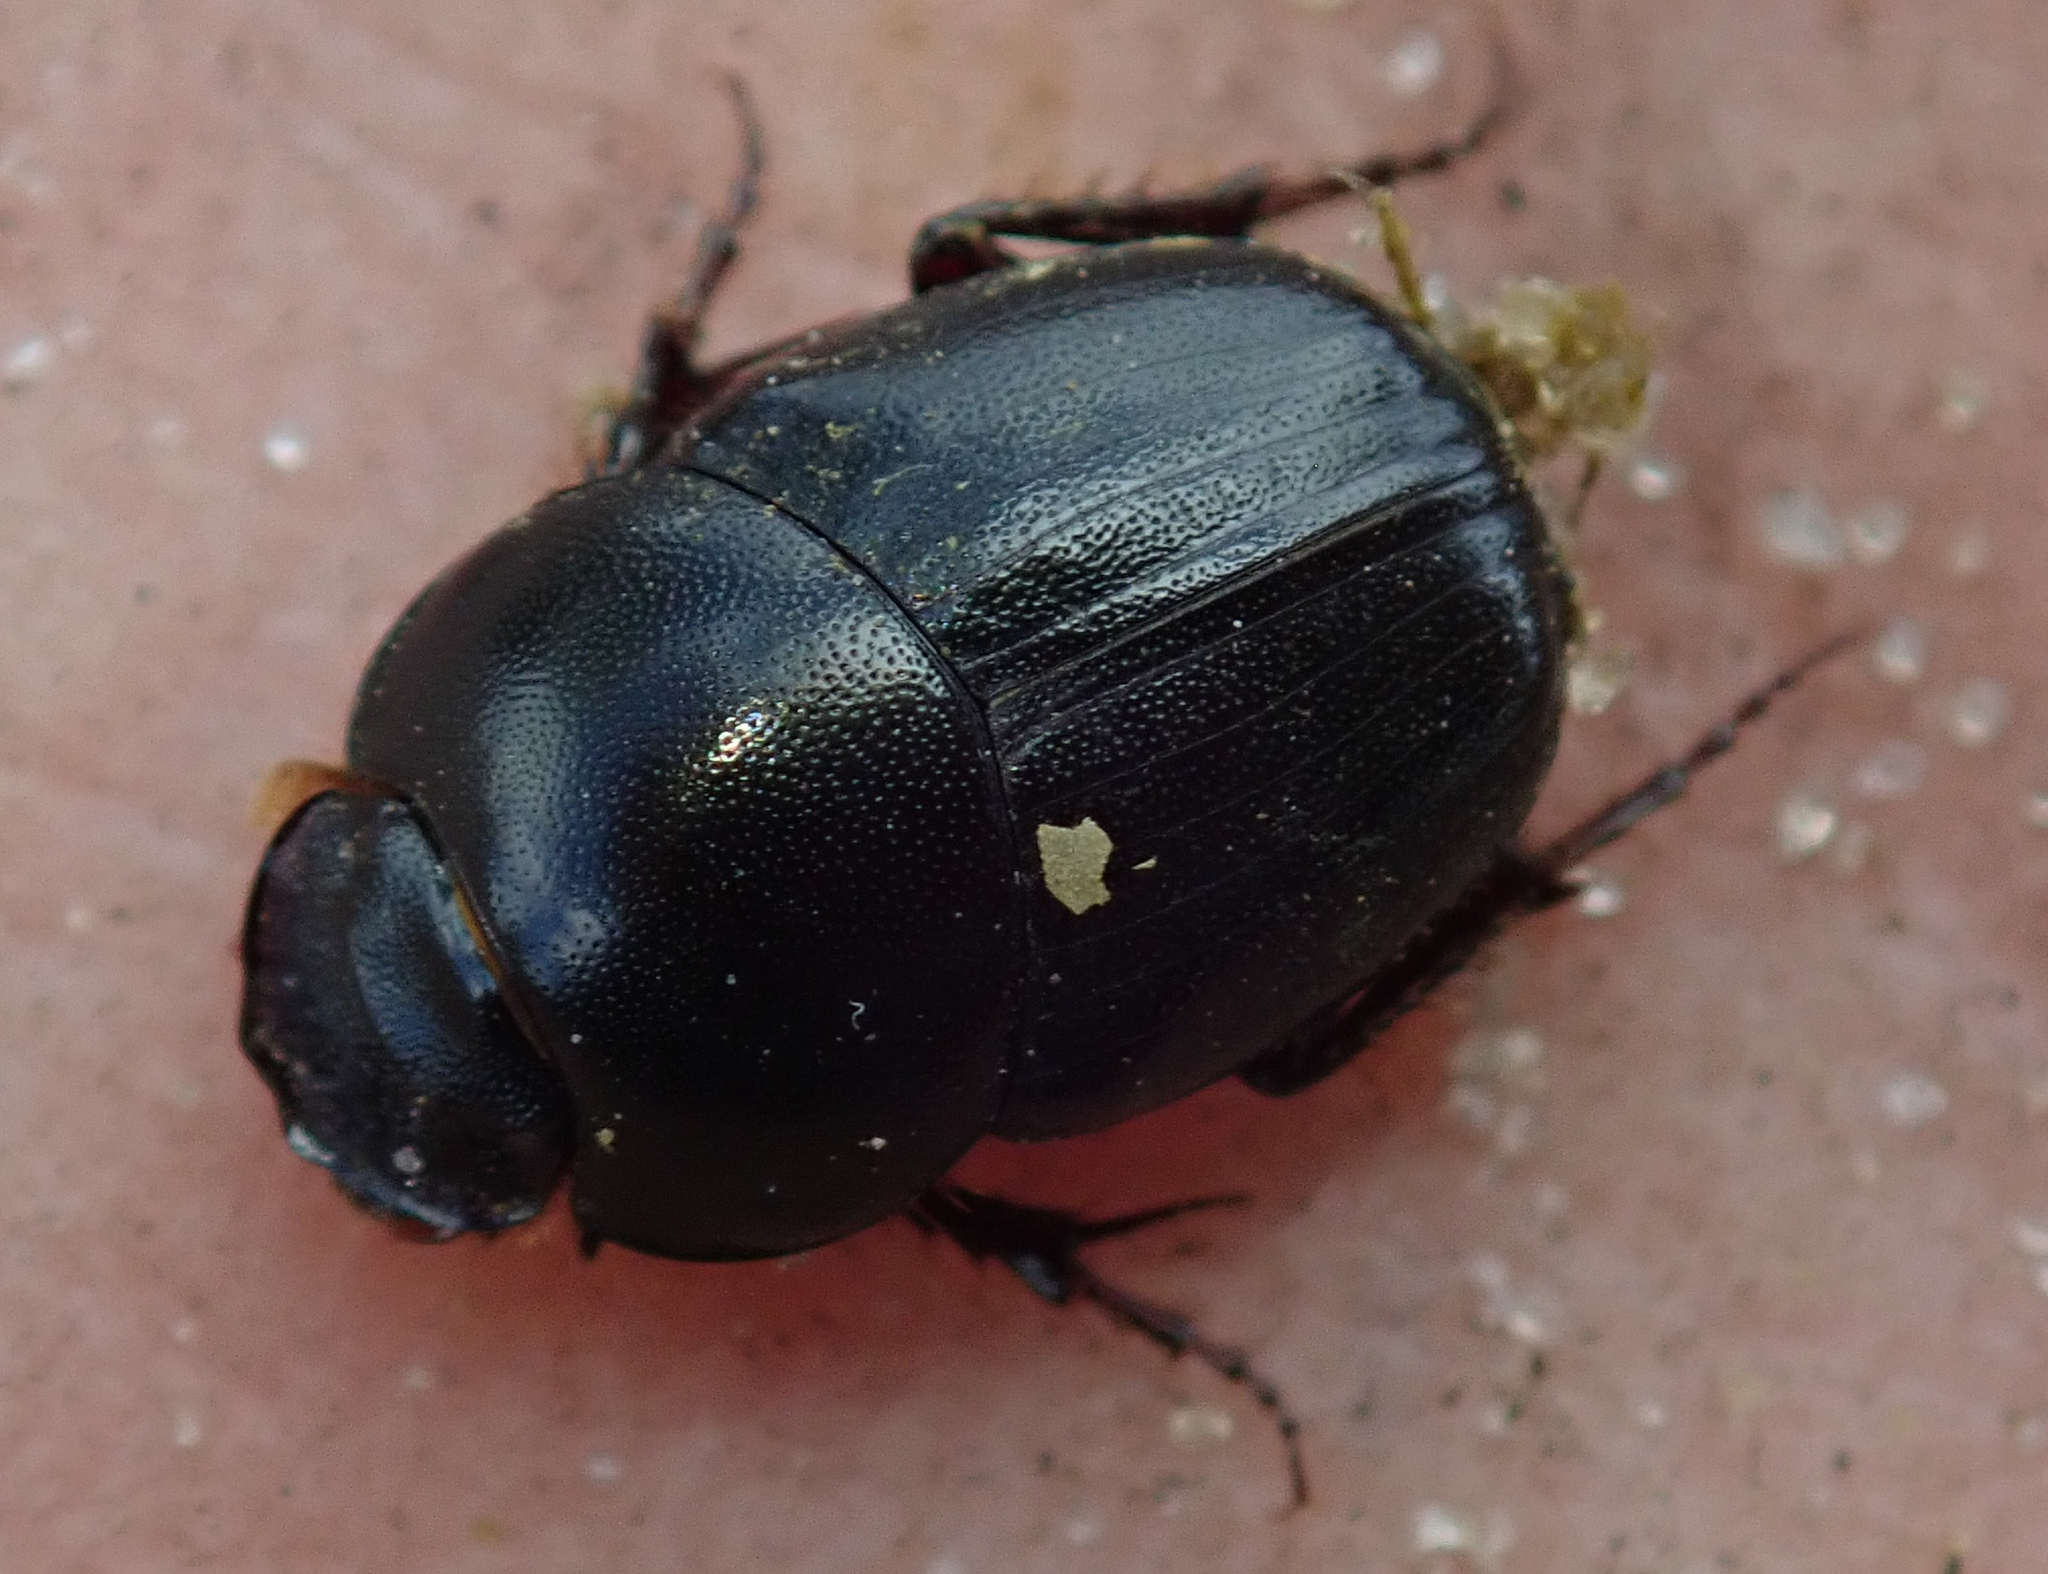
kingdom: Animalia
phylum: Arthropoda
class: Insecta
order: Coleoptera
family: Scarabaeidae
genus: Euonthophagus
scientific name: Euonthophagus carbonarius
